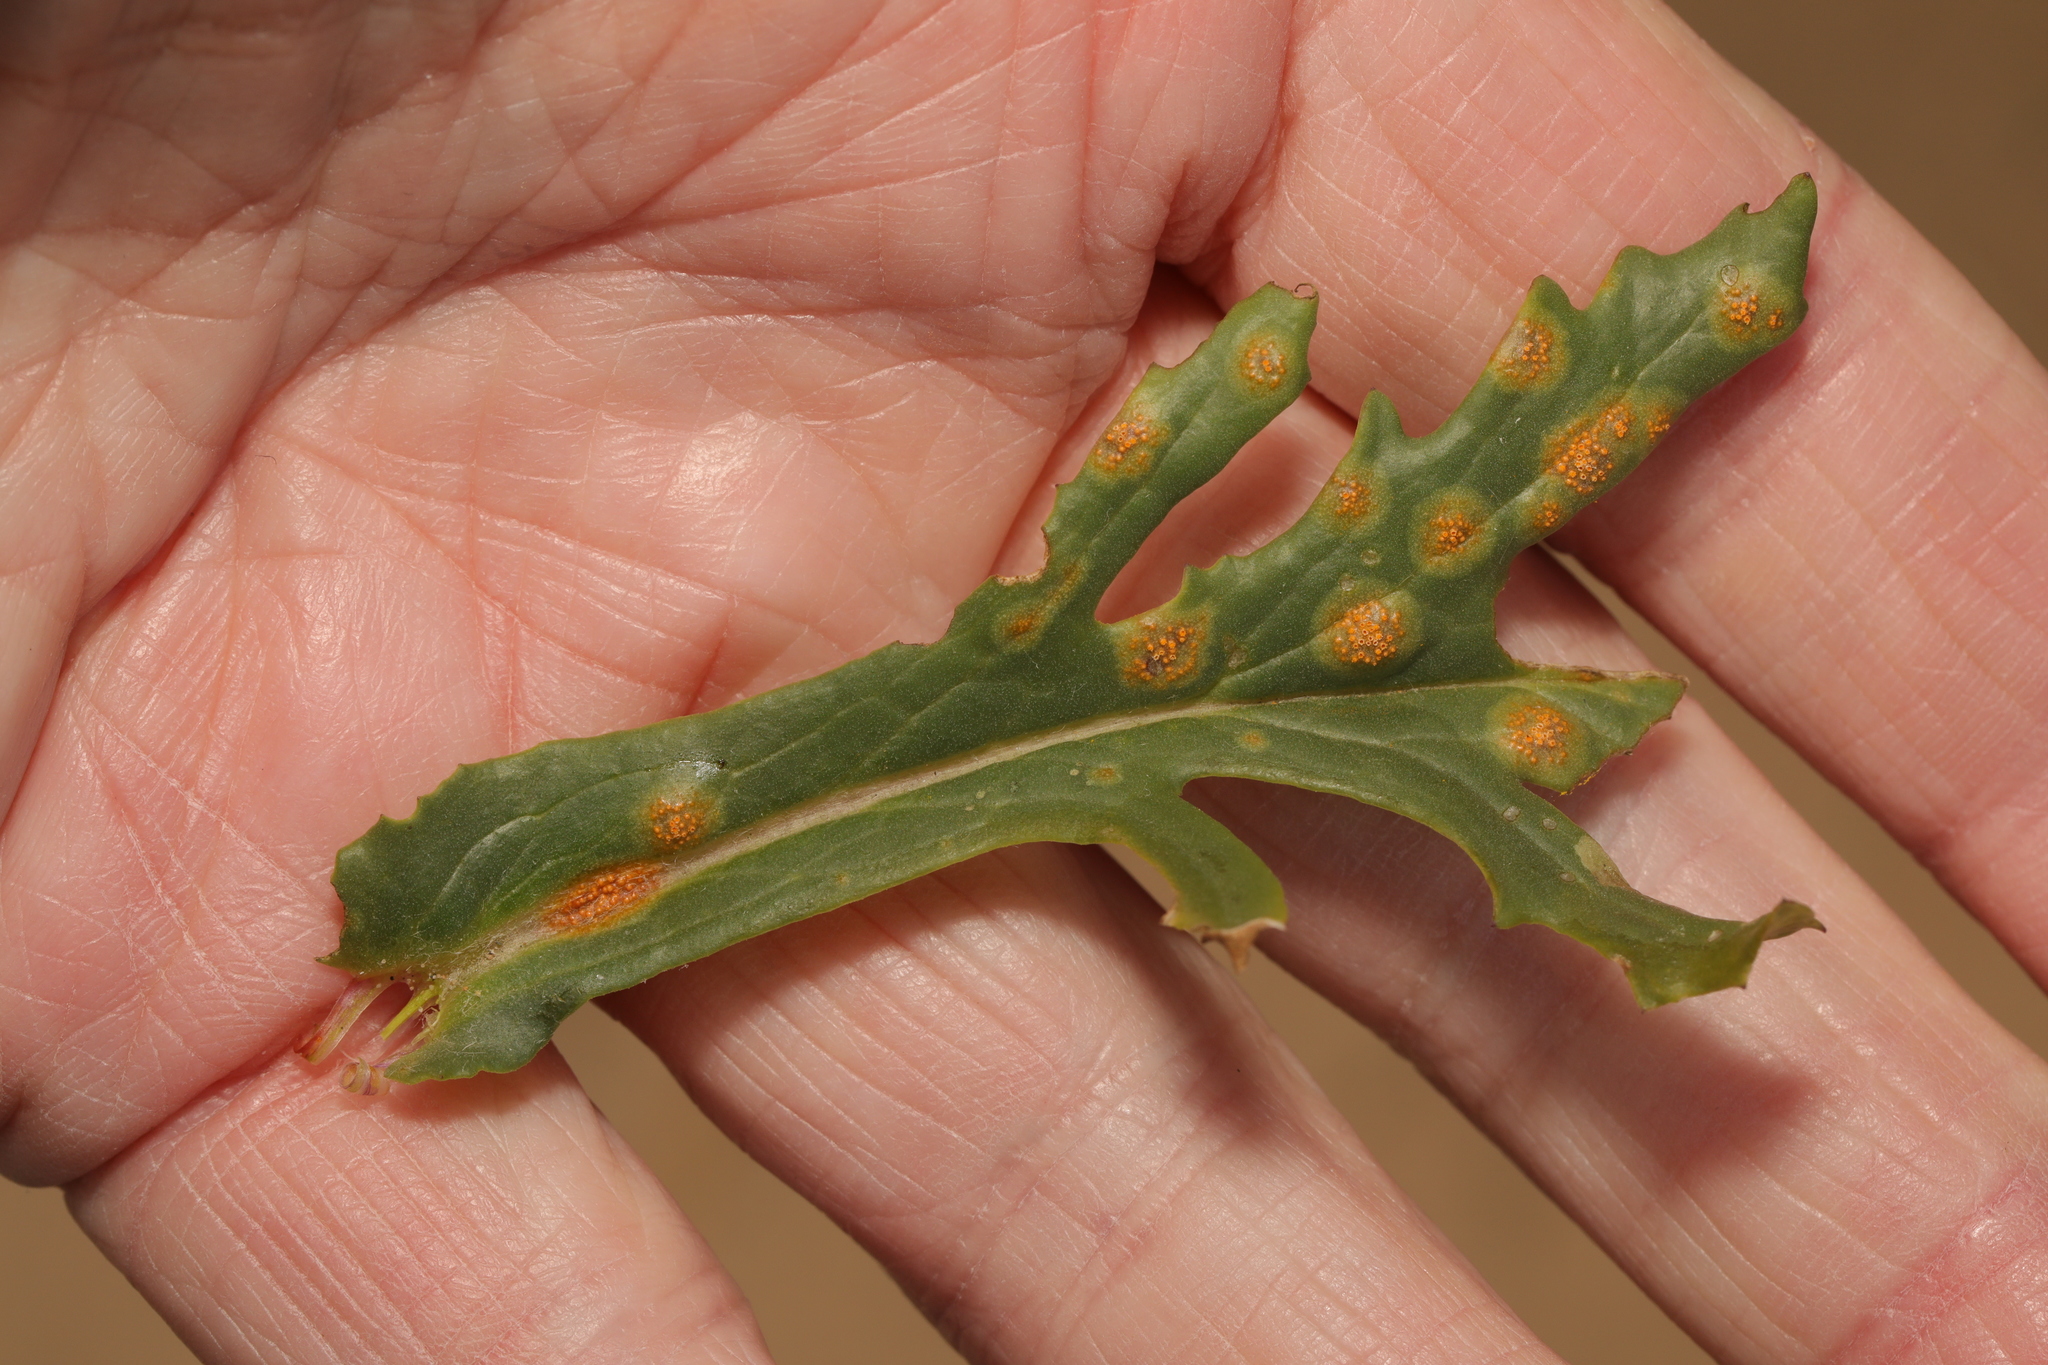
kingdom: Fungi
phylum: Basidiomycota
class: Pucciniomycetes
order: Pucciniales
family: Pucciniaceae
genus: Puccinia
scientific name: Puccinia lagenophorae
